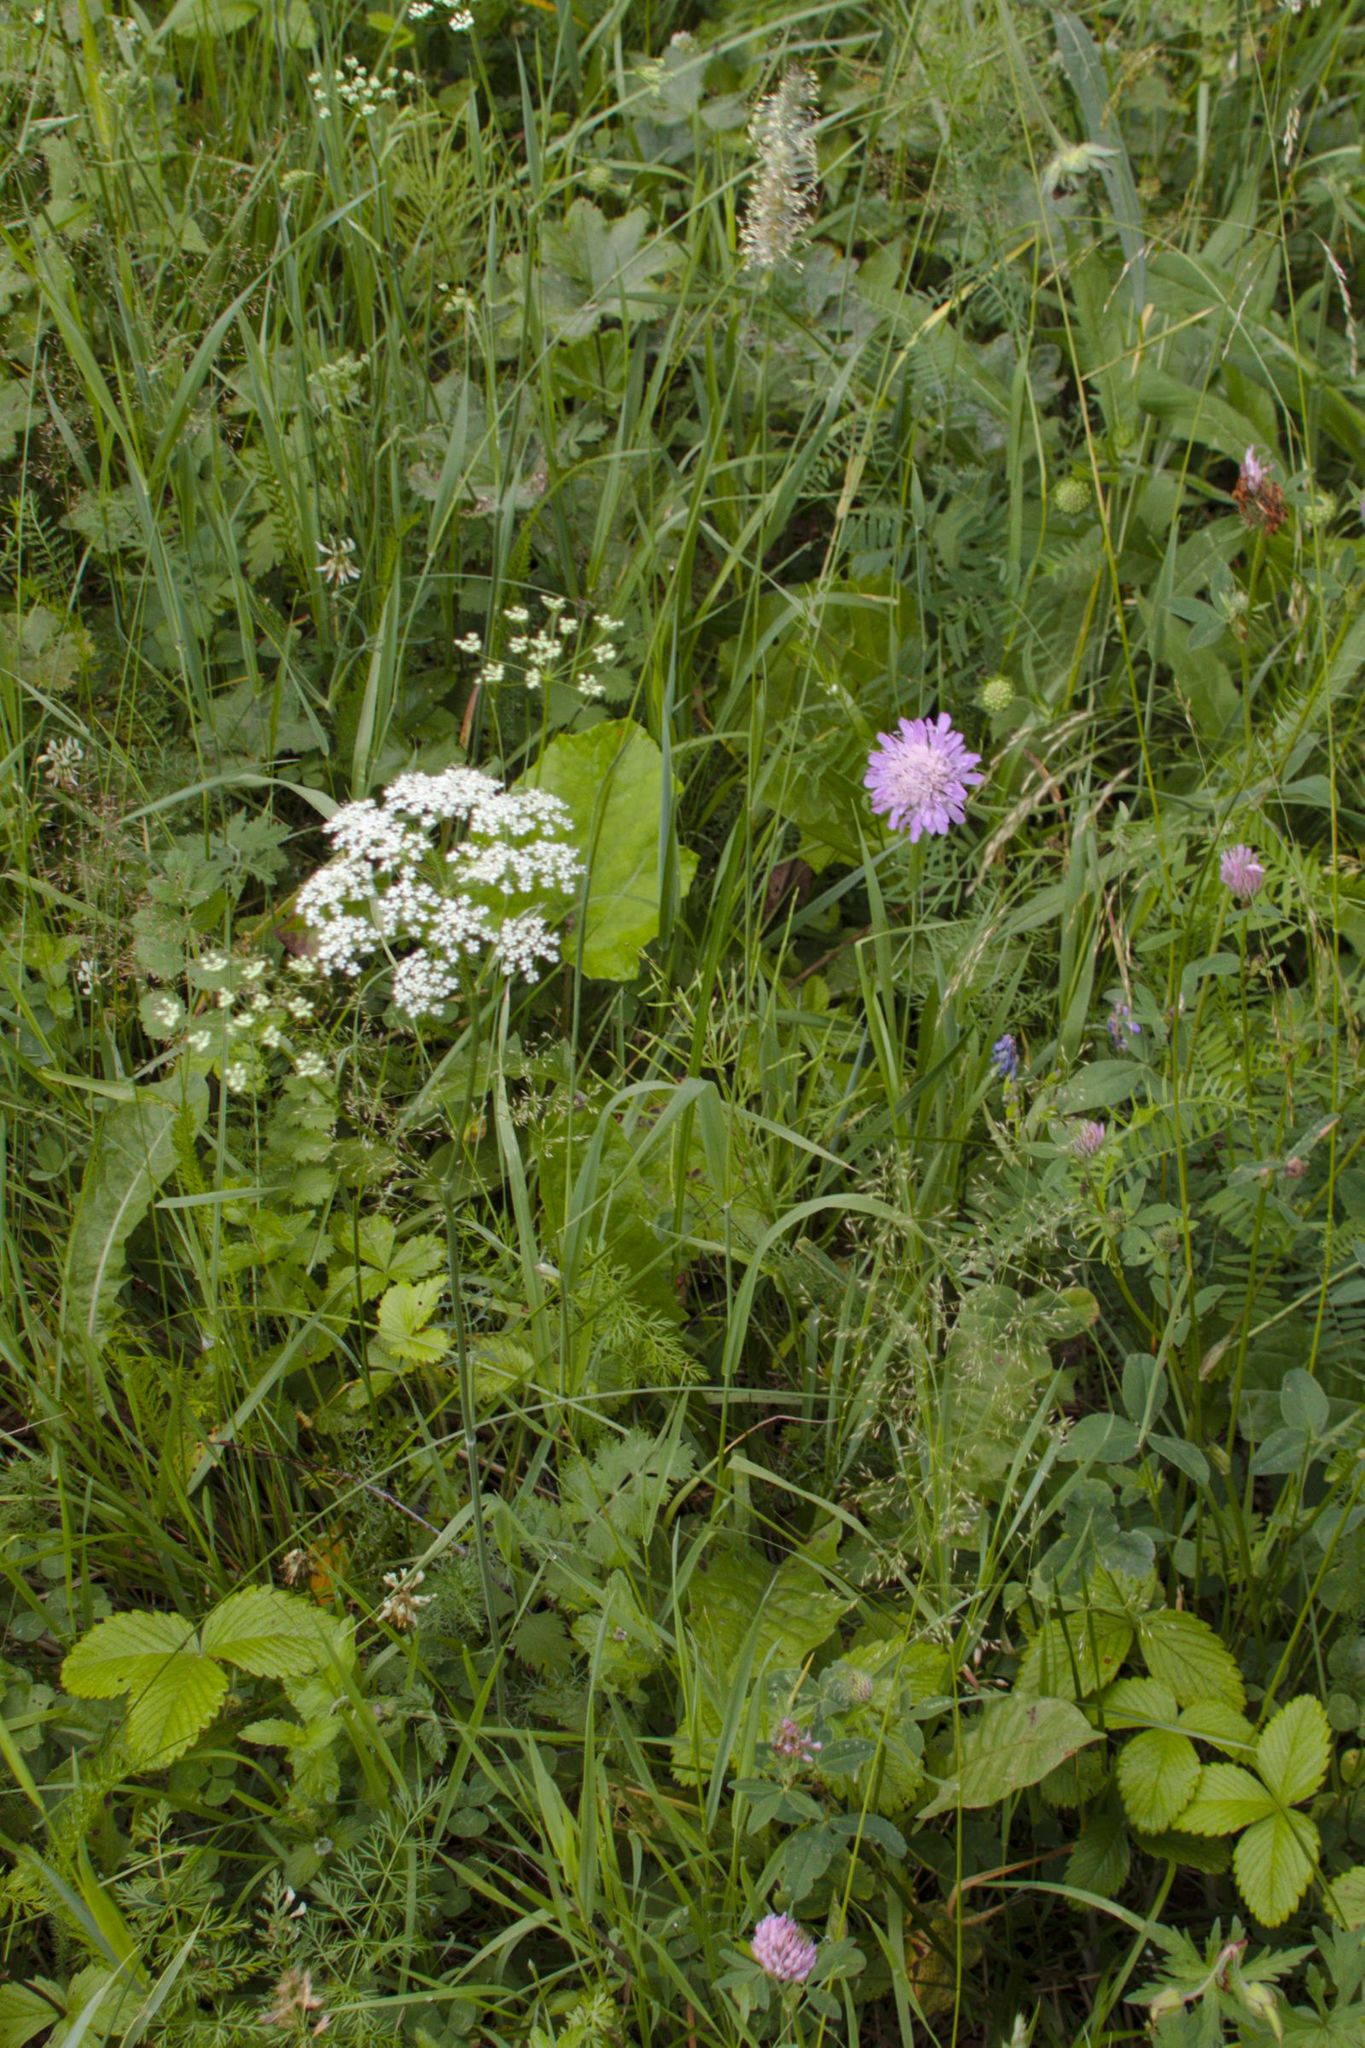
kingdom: Plantae
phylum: Tracheophyta
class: Liliopsida
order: Poales
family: Poaceae
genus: Phleum
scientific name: Phleum pratense
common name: Timothy grass
